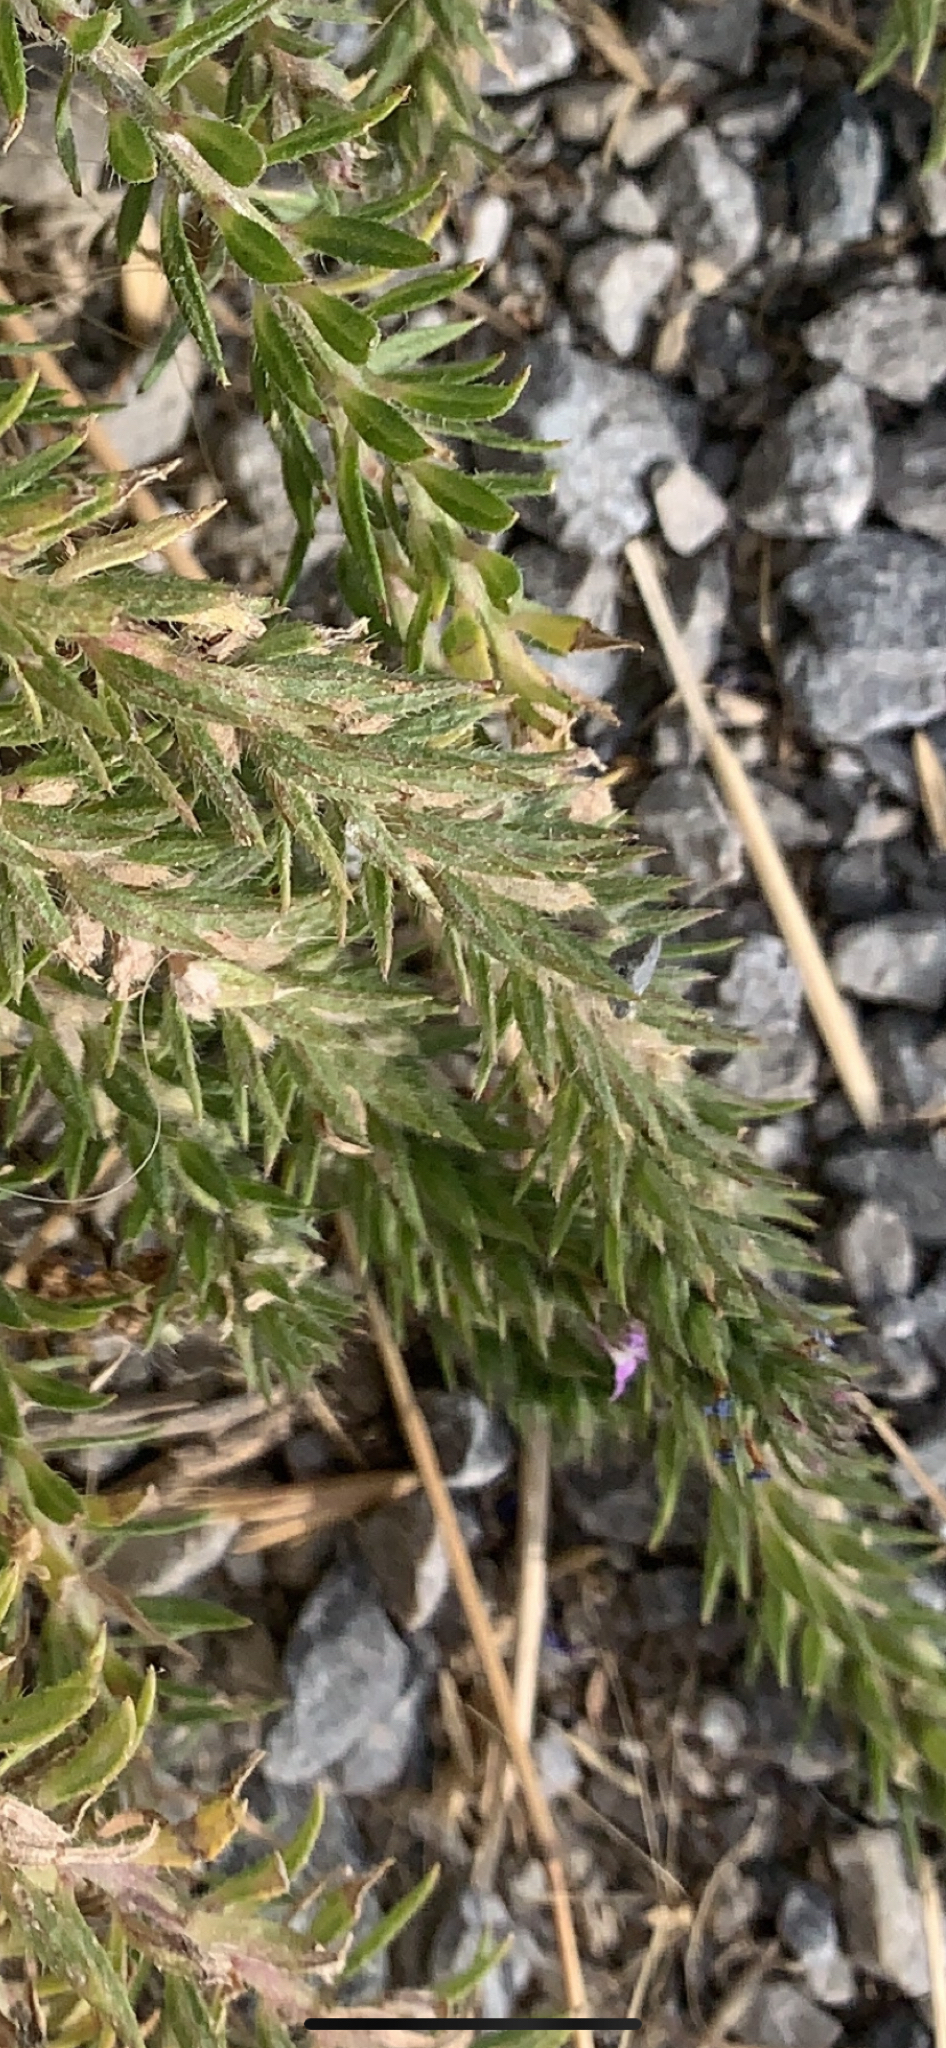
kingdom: Plantae
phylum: Tracheophyta
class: Magnoliopsida
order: Lamiales
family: Verbenaceae
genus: Verbena
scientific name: Verbena bracteata
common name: Bracted vervain
